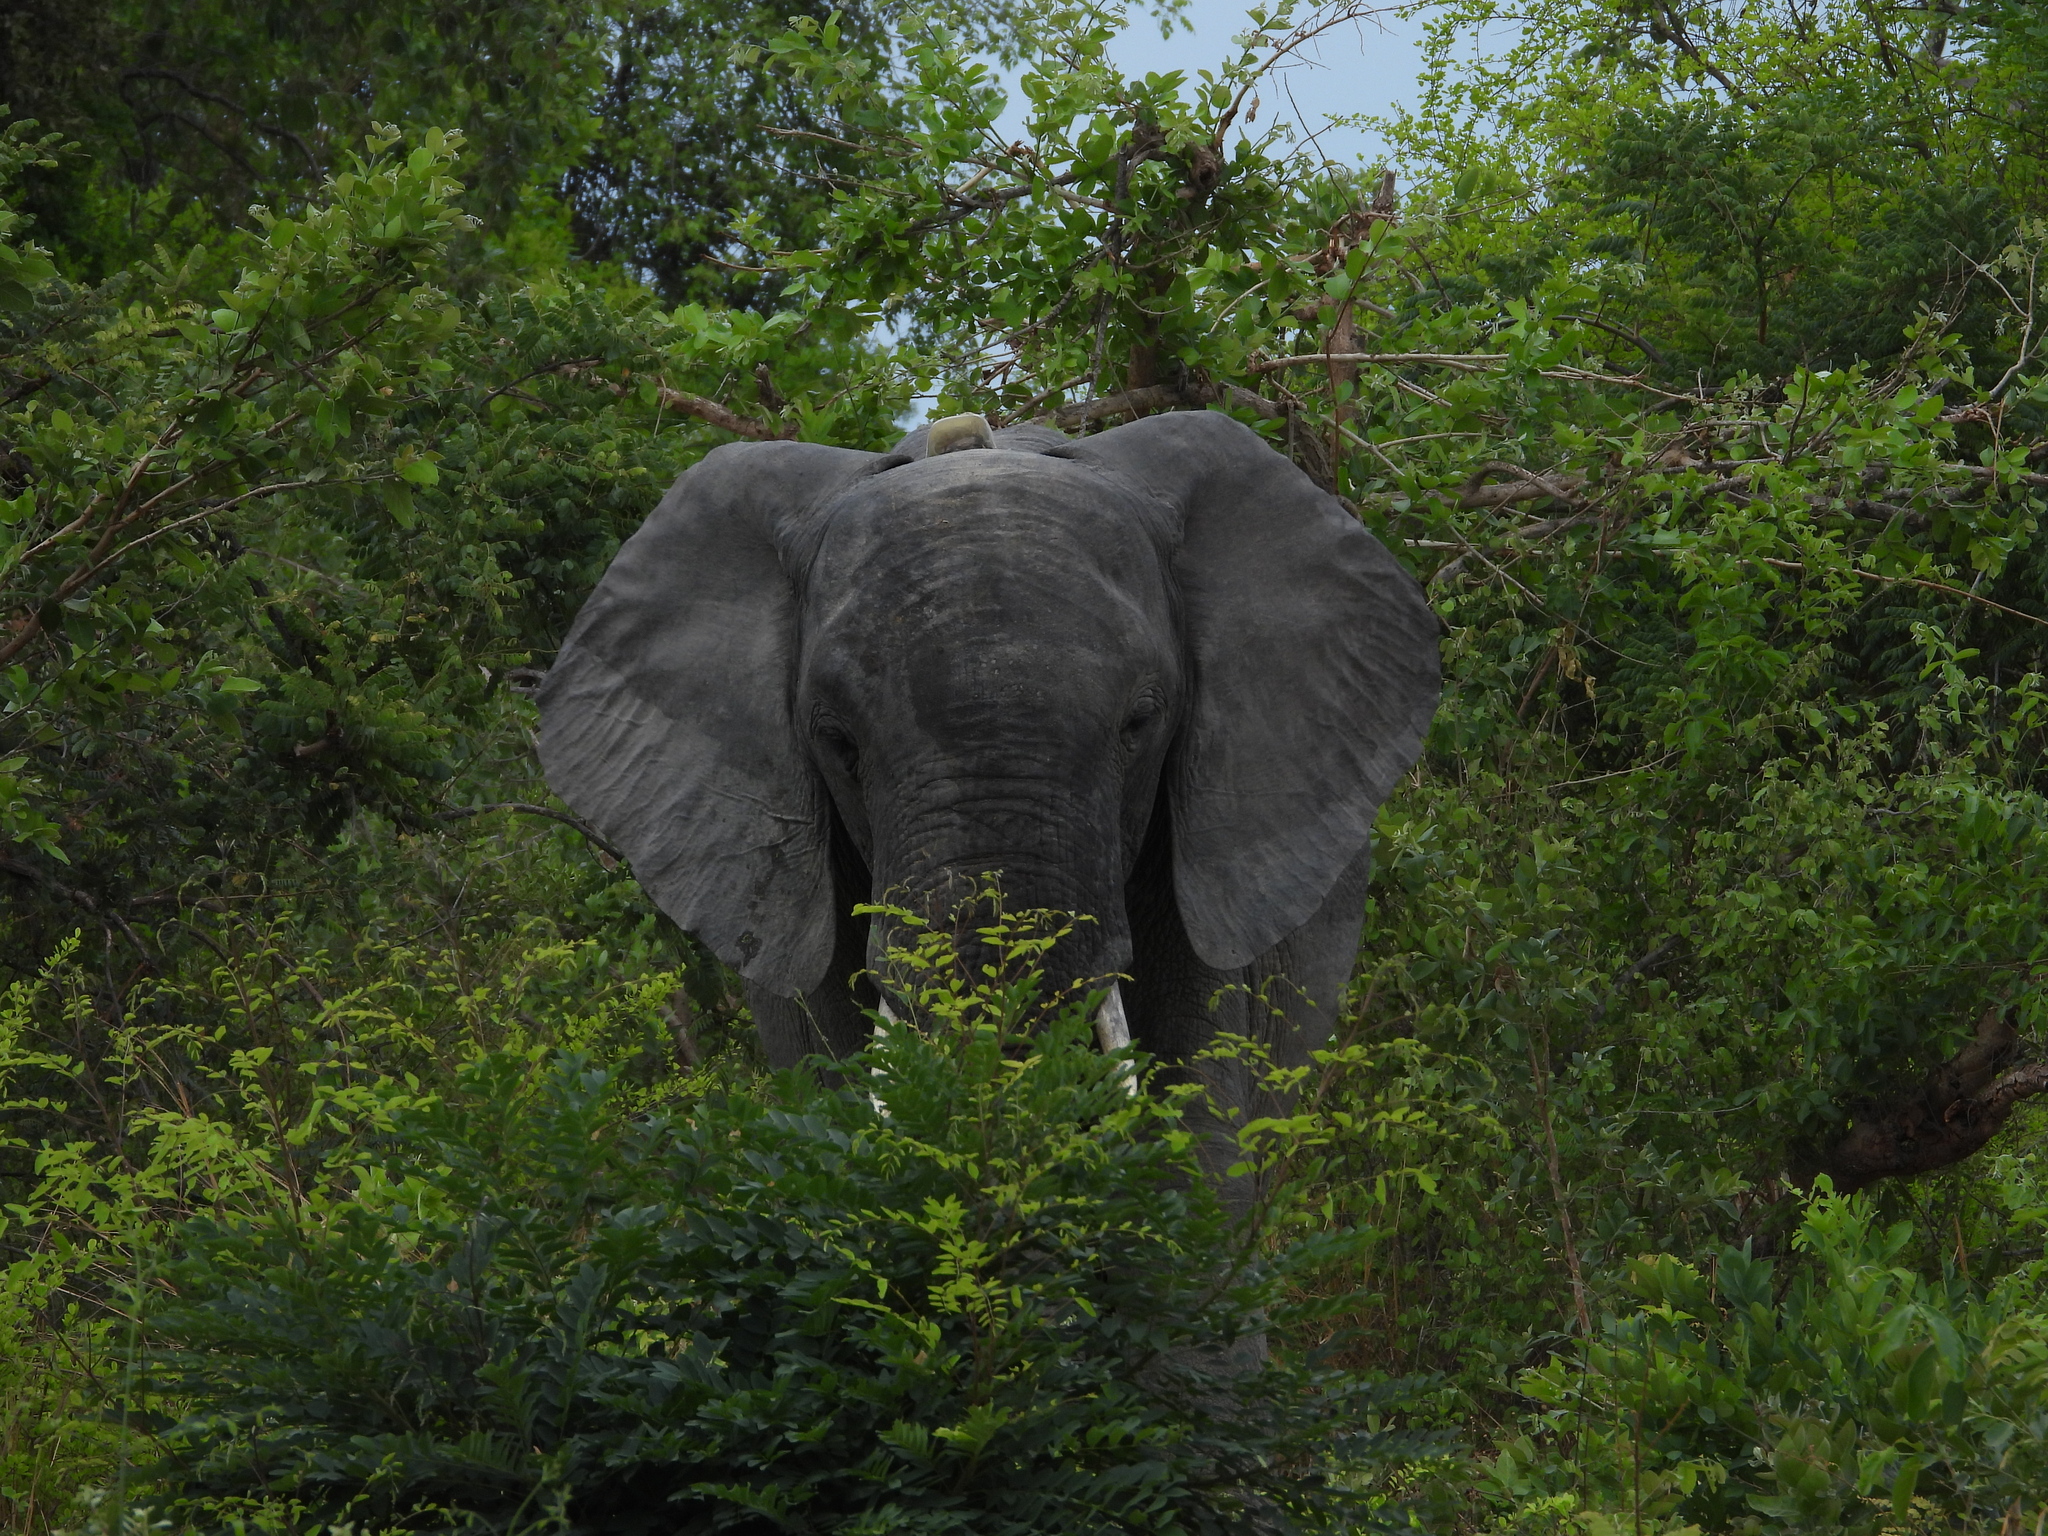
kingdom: Animalia
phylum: Chordata
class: Mammalia
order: Proboscidea
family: Elephantidae
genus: Loxodonta
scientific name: Loxodonta africana
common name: African elephant
